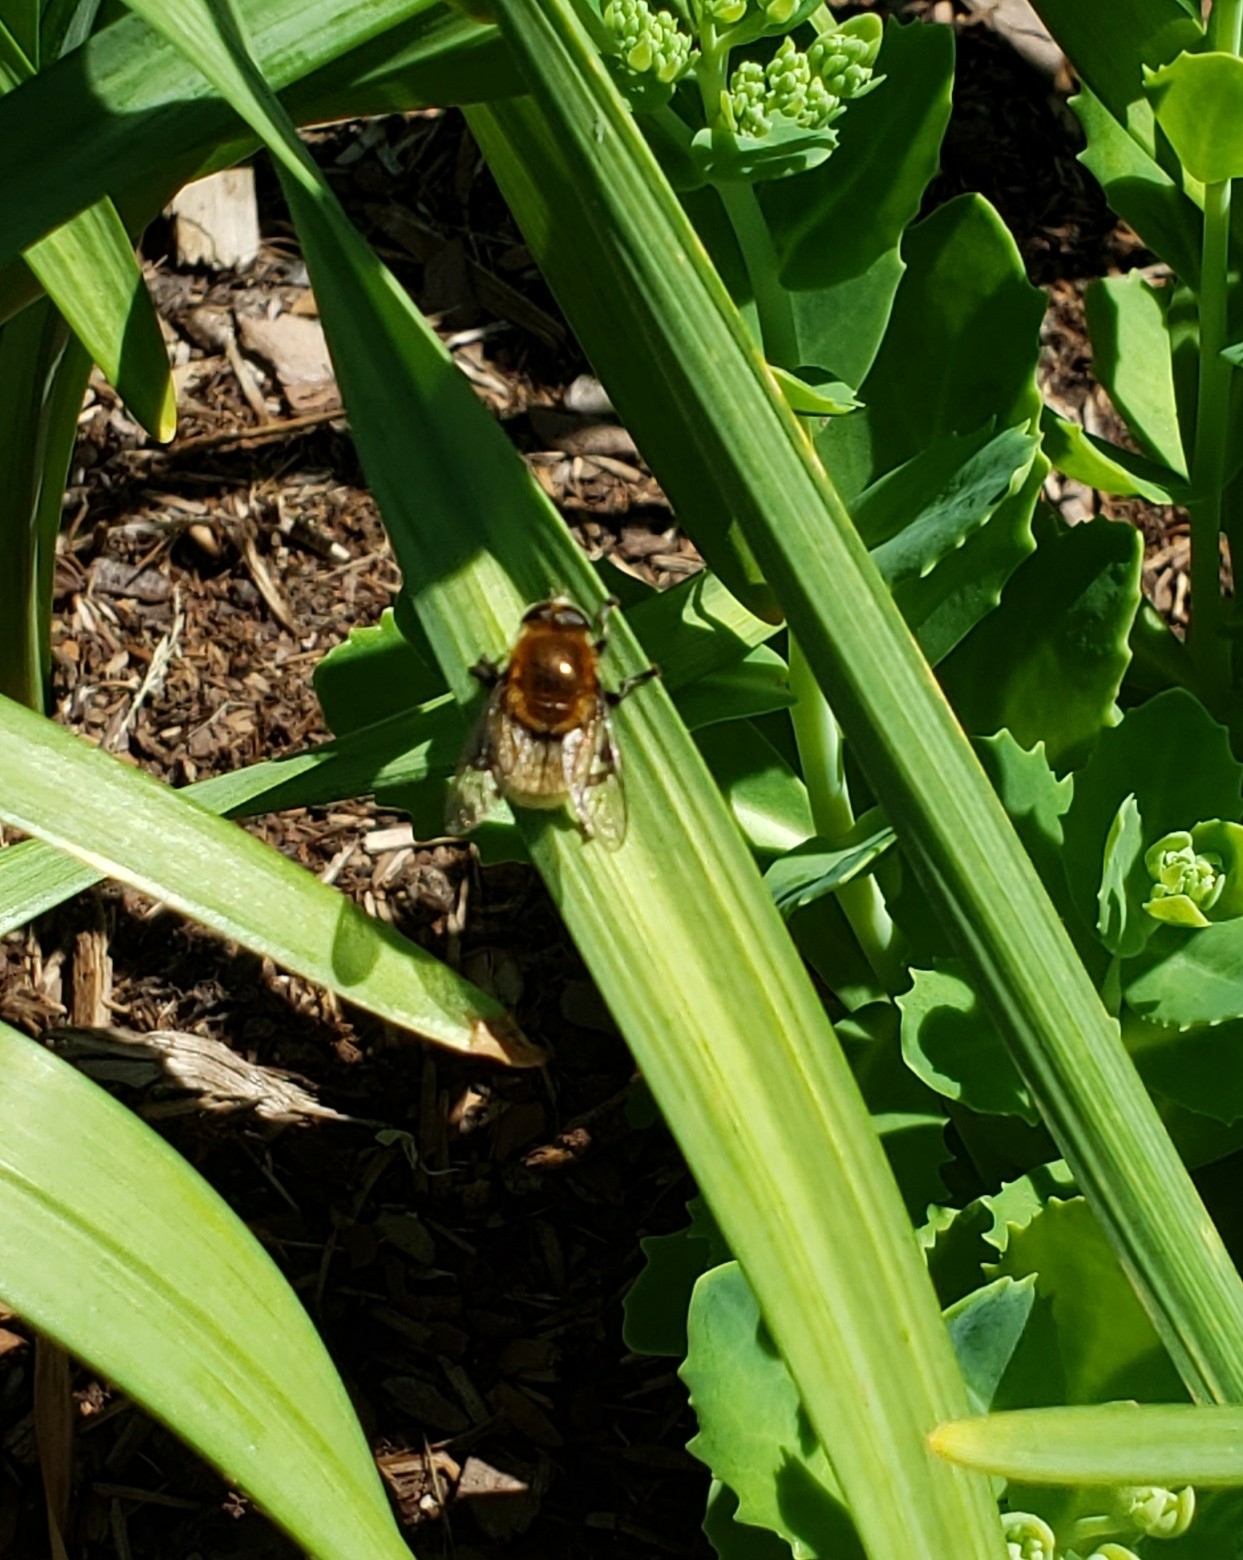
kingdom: Animalia
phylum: Arthropoda
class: Insecta
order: Diptera
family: Syrphidae
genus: Merodon
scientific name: Merodon equestris
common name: Greater bulb-fly
